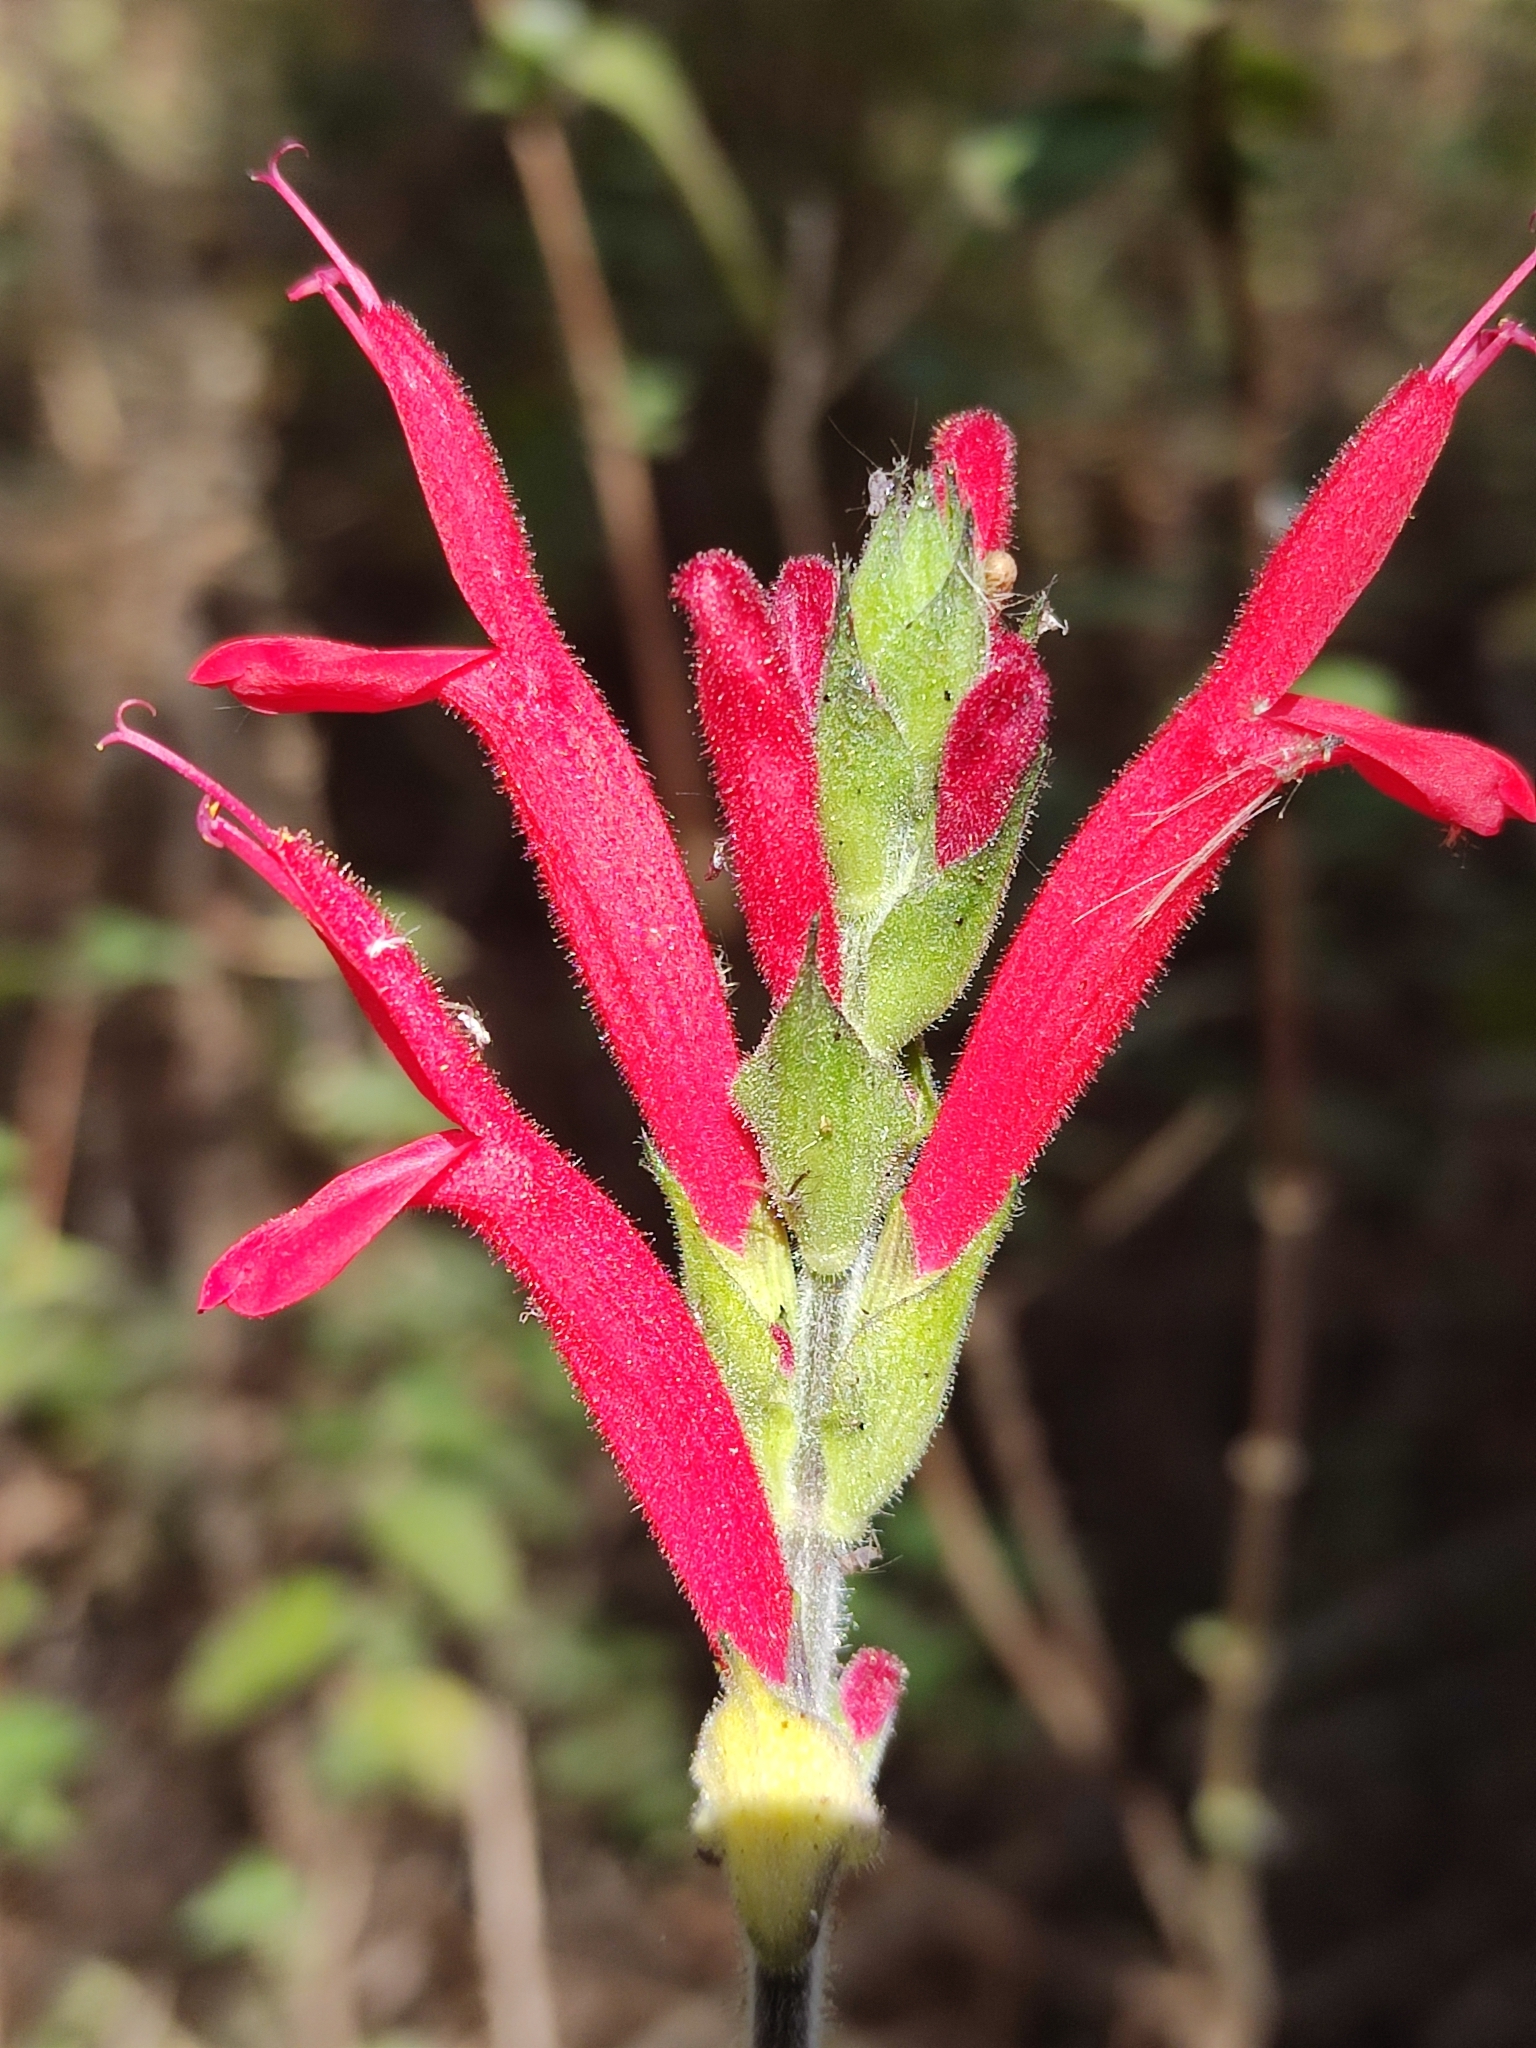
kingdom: Plantae
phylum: Tracheophyta
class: Magnoliopsida
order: Lamiales
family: Lamiaceae
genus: Salvia
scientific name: Salvia elegans
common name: Pineapple sage
